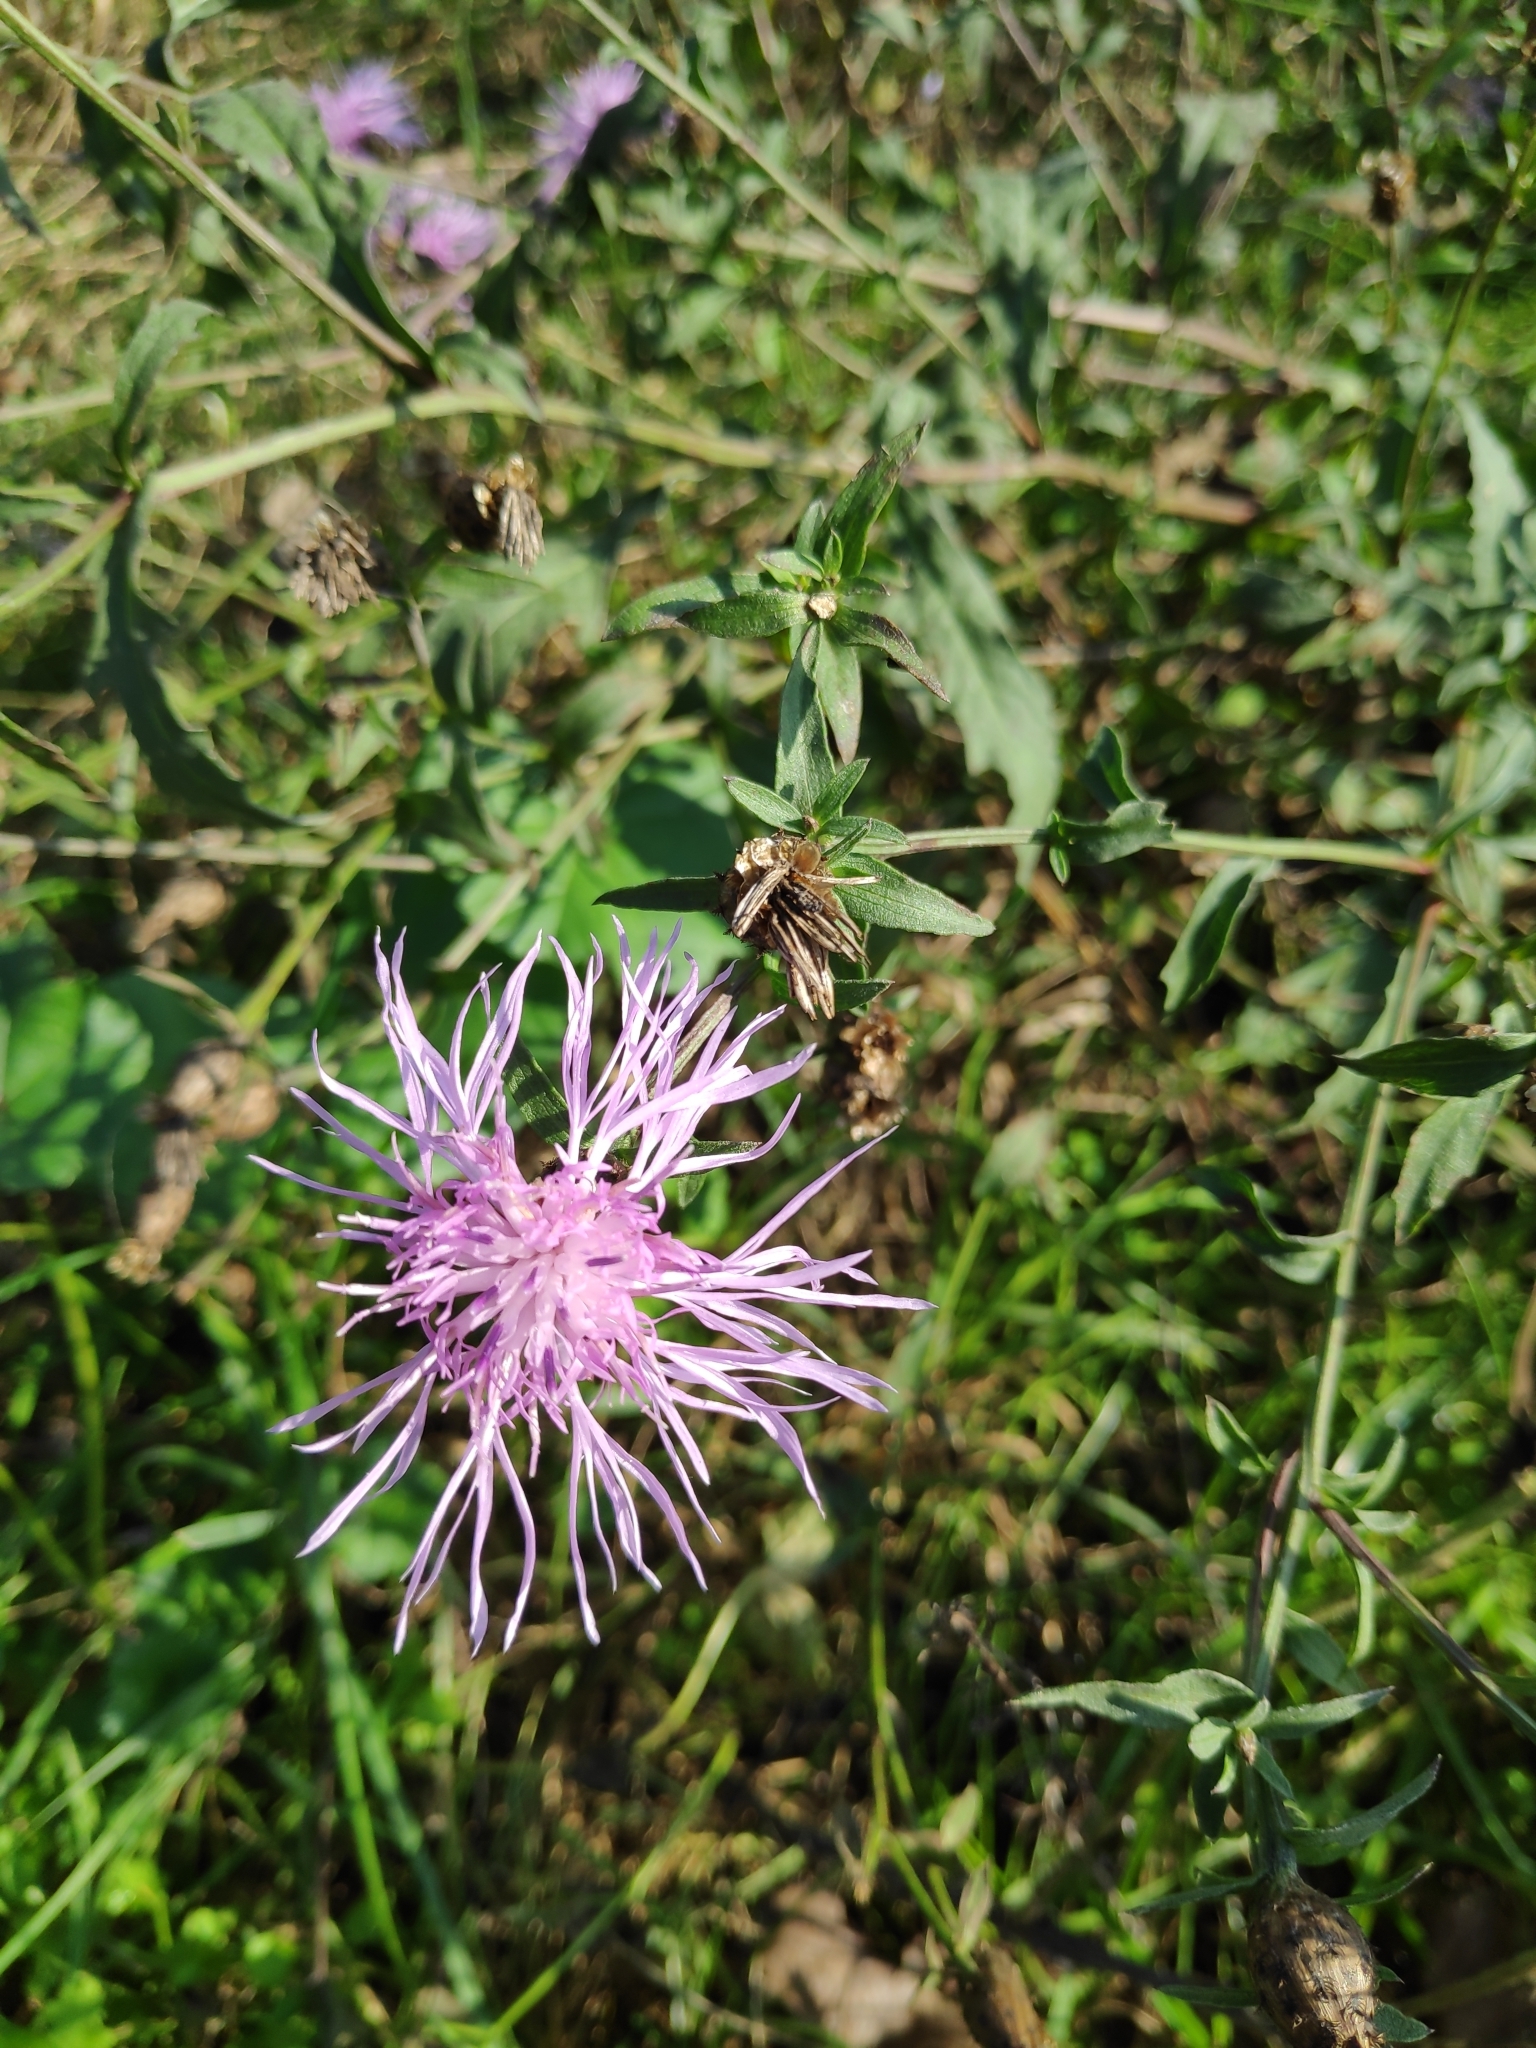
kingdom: Plantae
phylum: Tracheophyta
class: Magnoliopsida
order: Asterales
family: Asteraceae
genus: Centaurea
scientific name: Centaurea nigrescens
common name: Tyrol knapweed
